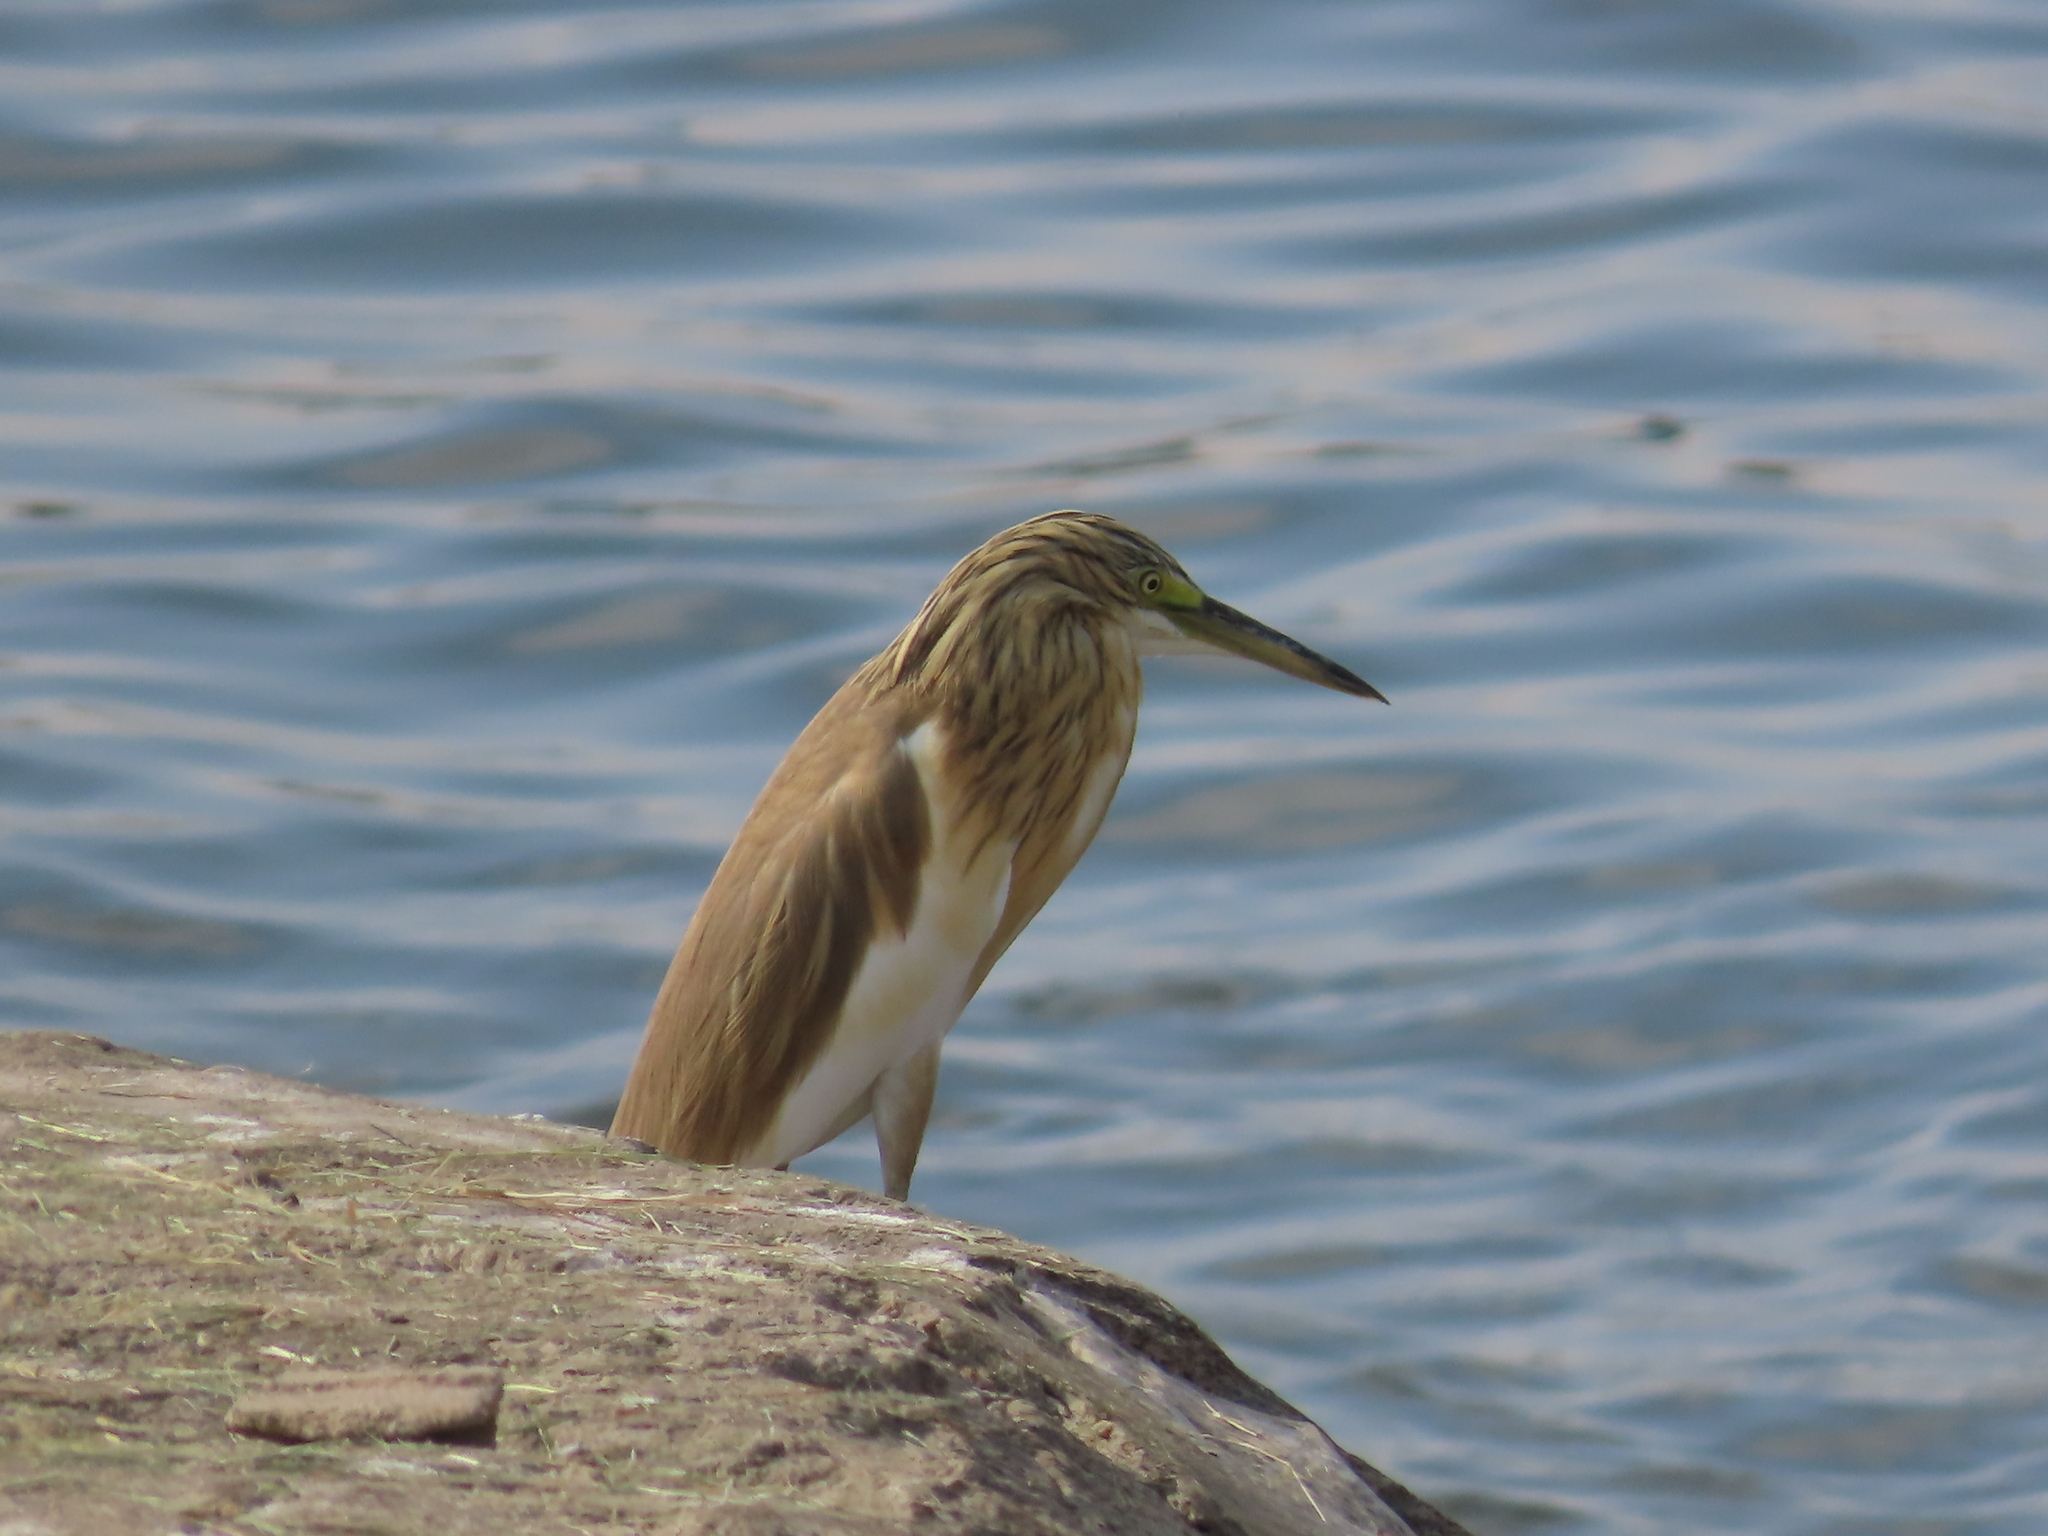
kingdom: Animalia
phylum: Chordata
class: Aves
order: Pelecaniformes
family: Ardeidae
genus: Ardeola
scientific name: Ardeola ralloides
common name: Squacco heron
